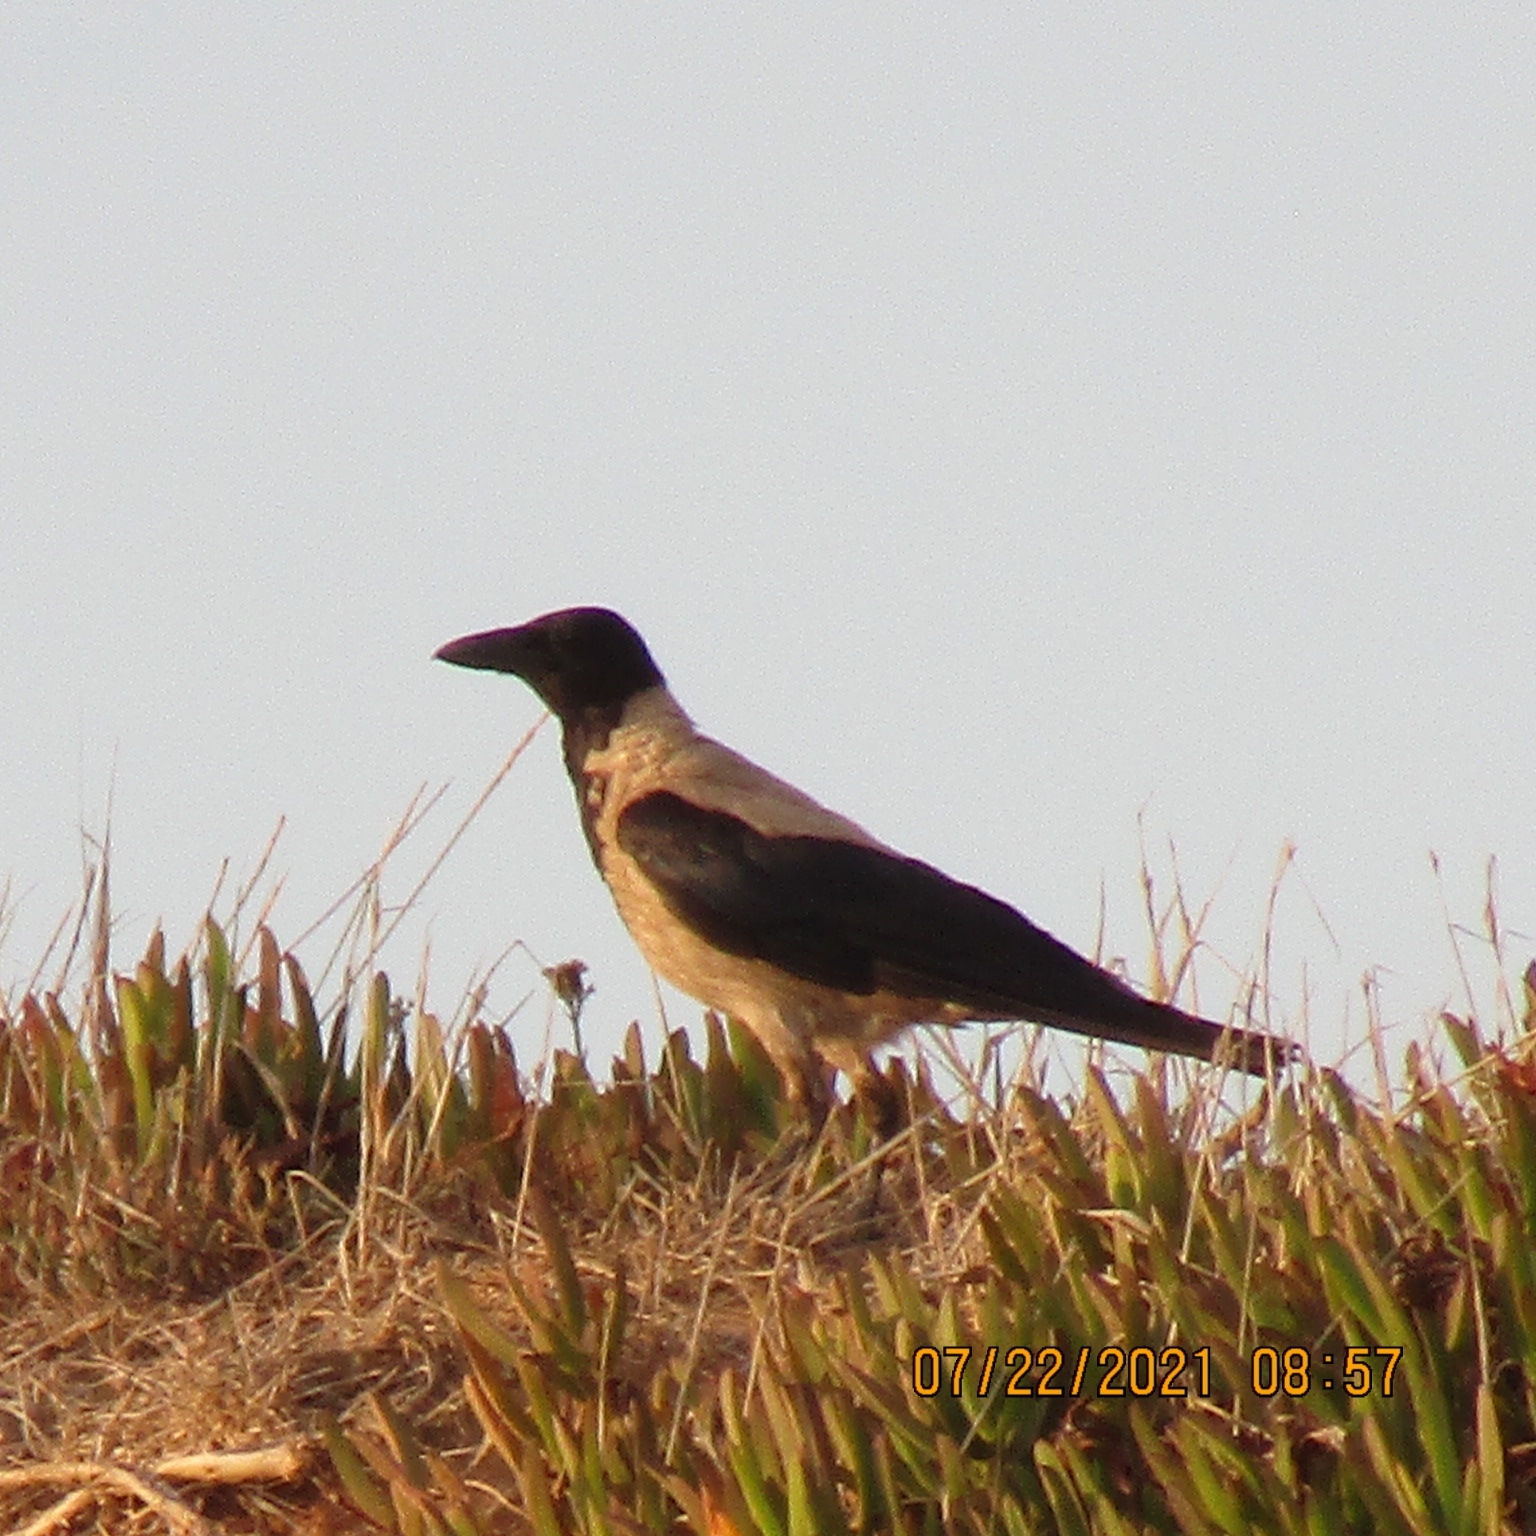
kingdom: Animalia
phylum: Chordata
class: Aves
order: Passeriformes
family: Corvidae
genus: Corvus
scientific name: Corvus cornix
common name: Hooded crow
